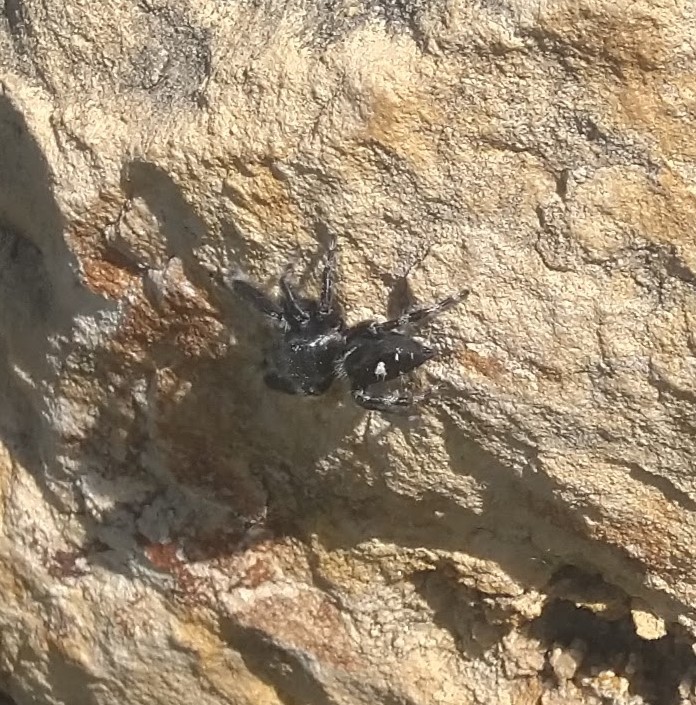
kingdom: Animalia
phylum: Arthropoda
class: Arachnida
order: Araneae
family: Salticidae
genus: Phidippus
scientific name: Phidippus audax
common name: Bold jumper
